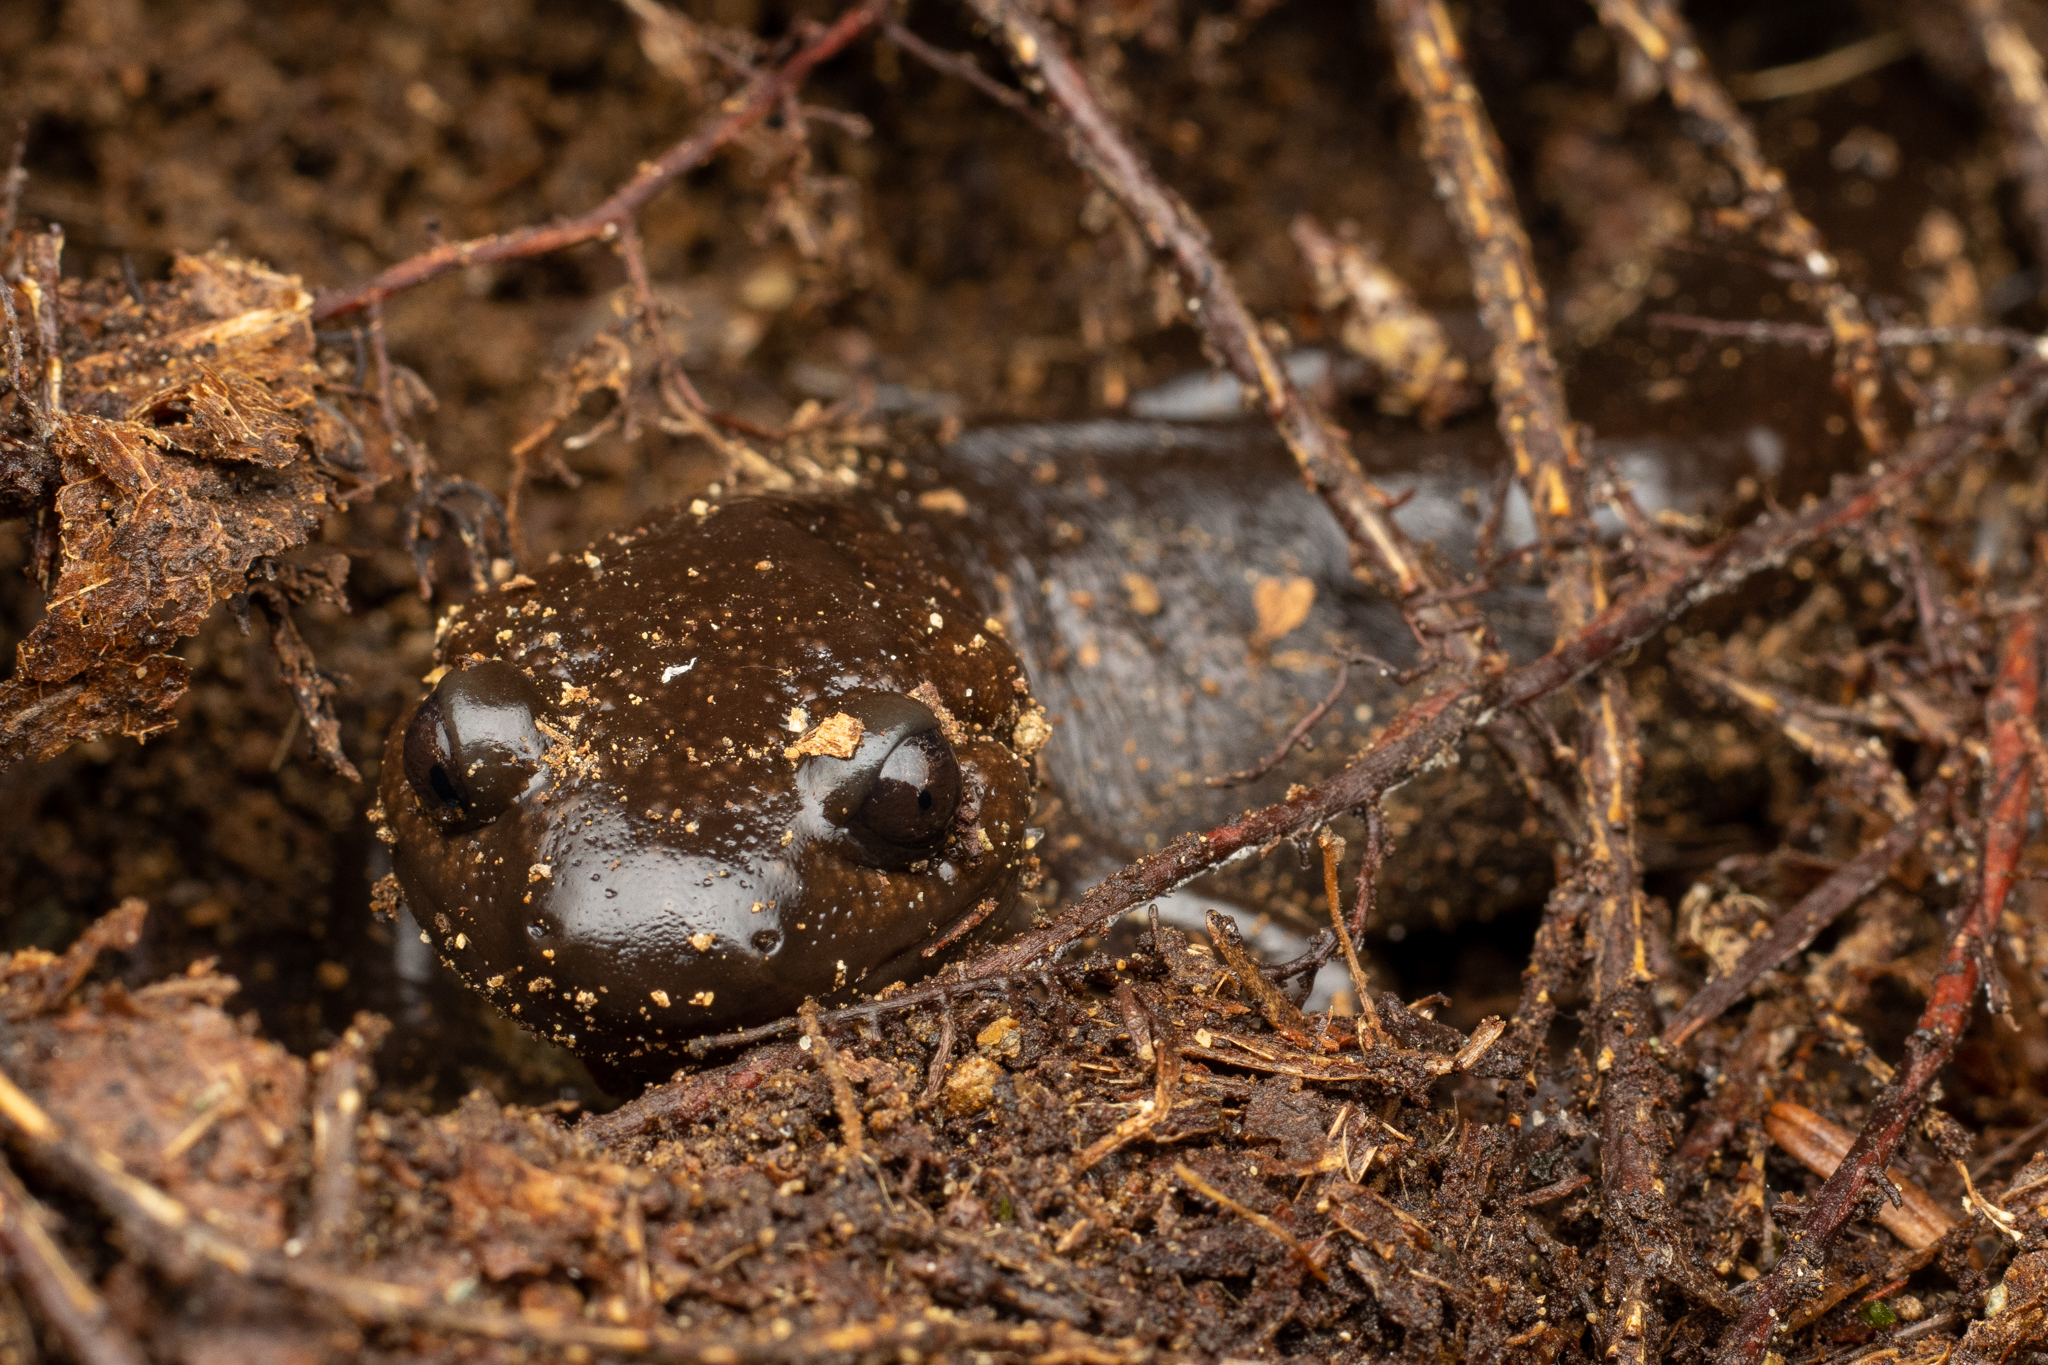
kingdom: Animalia
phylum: Chordata
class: Amphibia
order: Caudata
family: Ambystomatidae
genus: Ambystoma
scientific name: Ambystoma gracile
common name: Northwestern salamander
